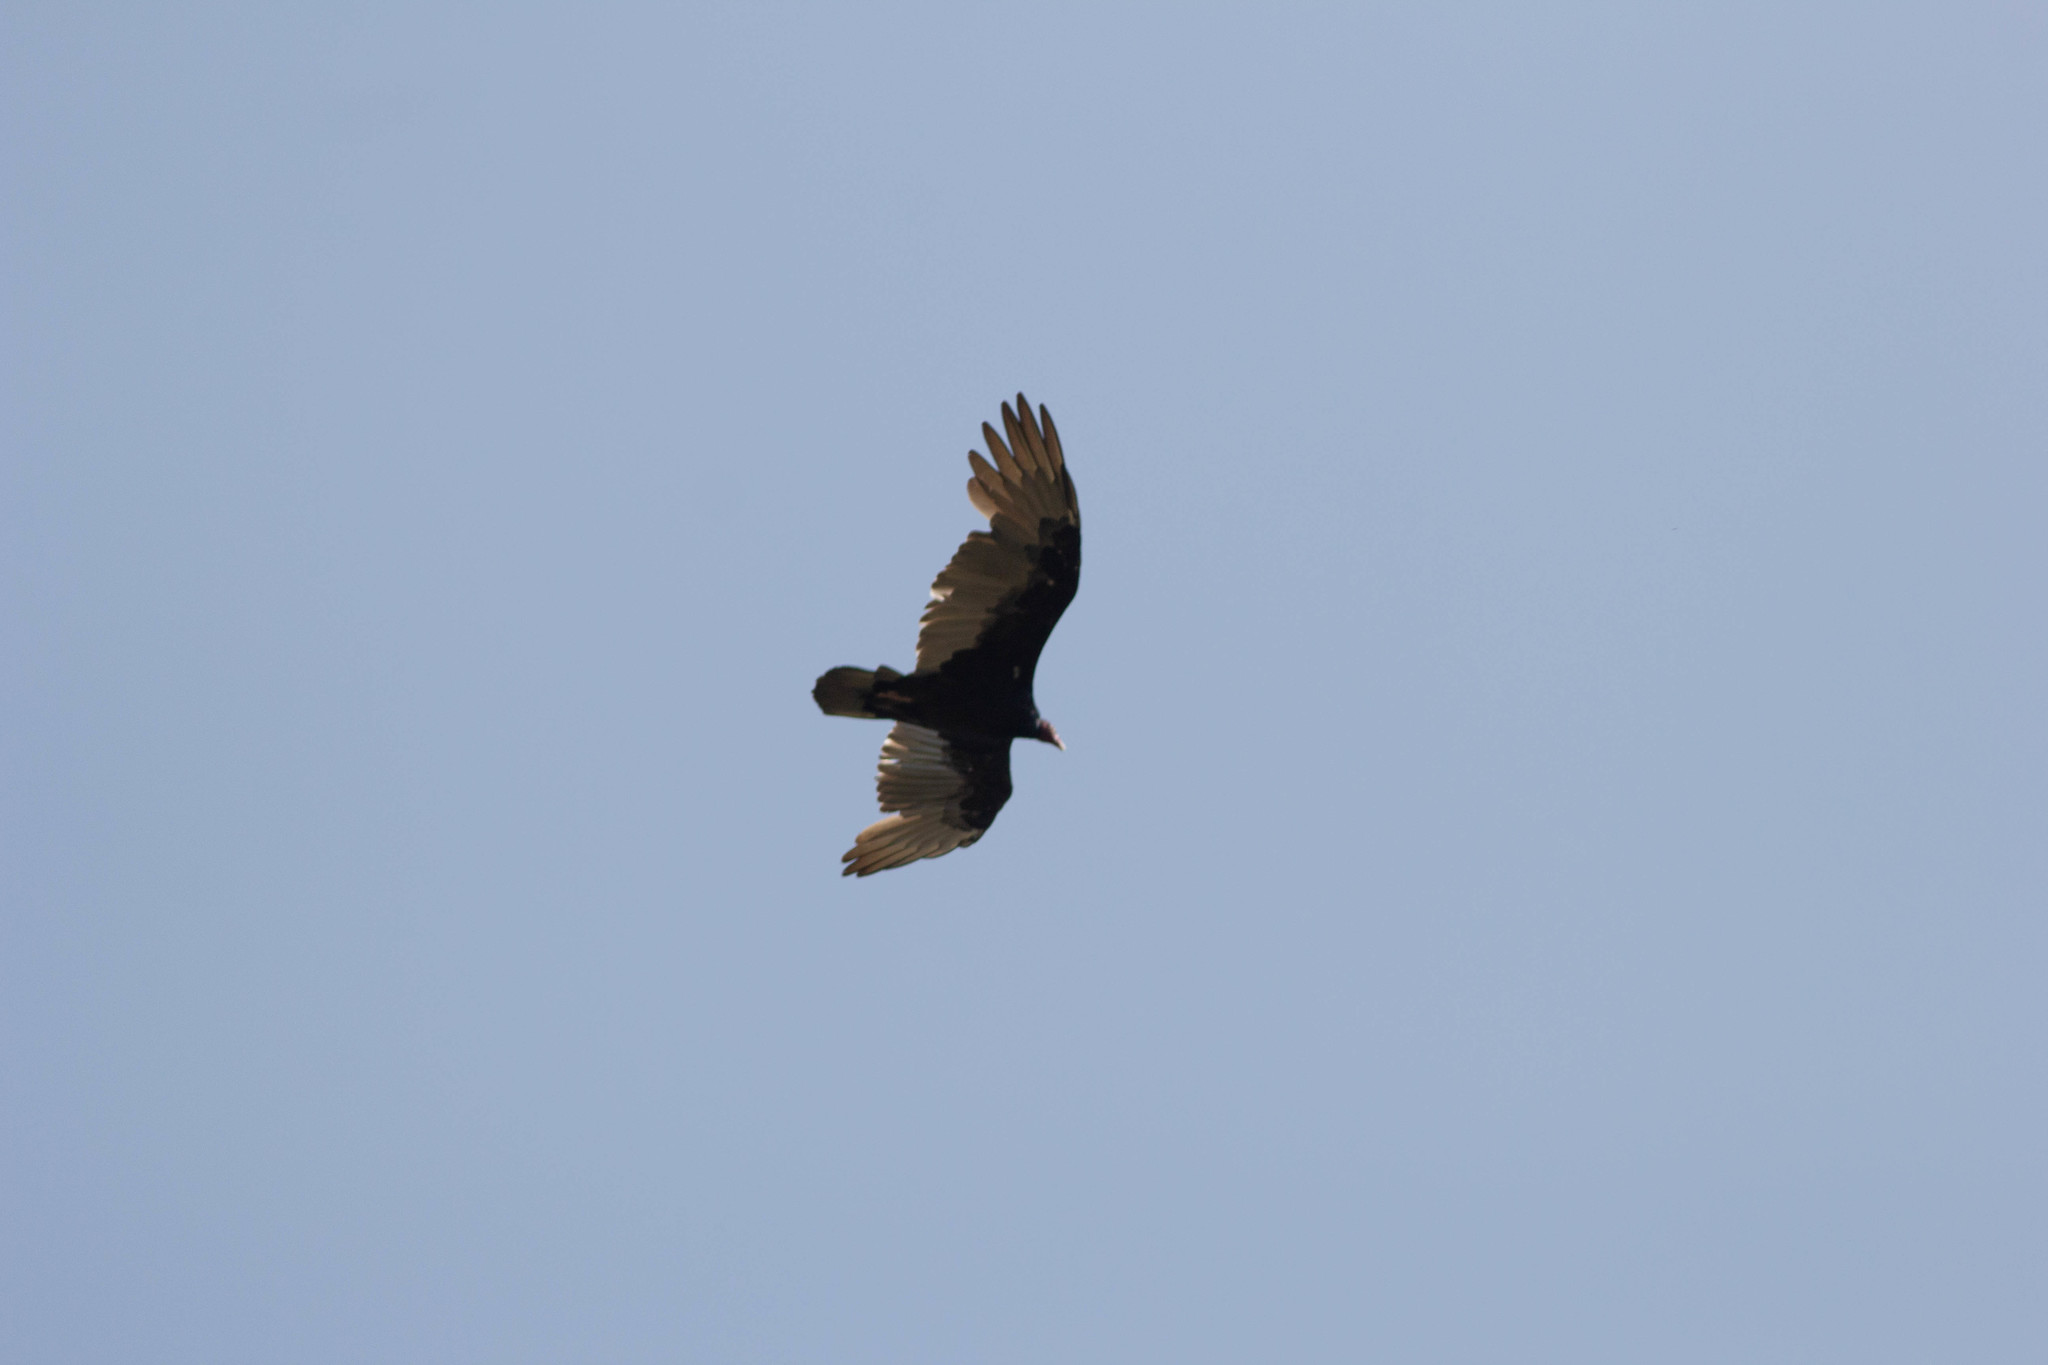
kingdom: Animalia
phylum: Chordata
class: Aves
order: Accipitriformes
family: Cathartidae
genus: Cathartes
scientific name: Cathartes aura
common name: Turkey vulture
